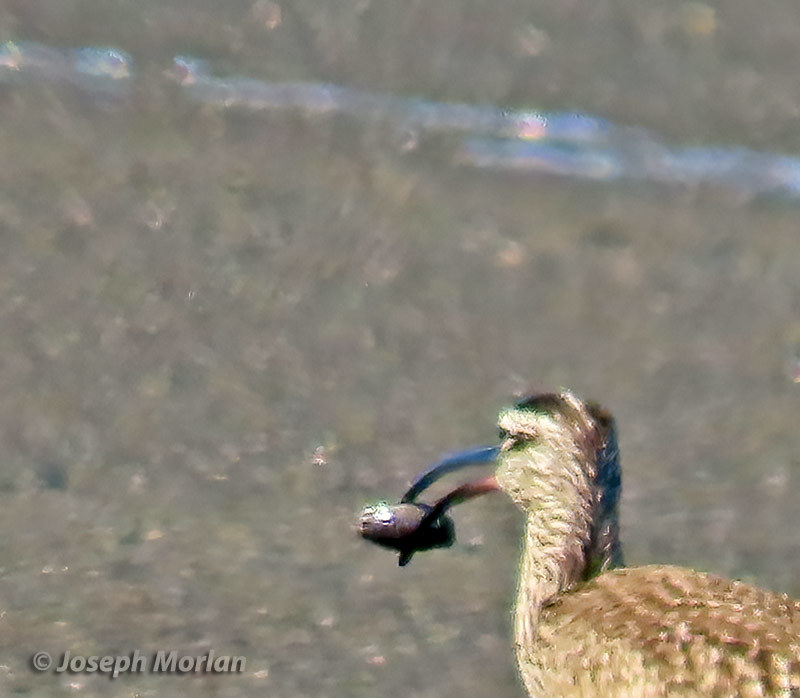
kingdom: Animalia
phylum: Arthropoda
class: Malacostraca
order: Decapoda
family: Hippidae
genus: Emerita
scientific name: Emerita analoga
